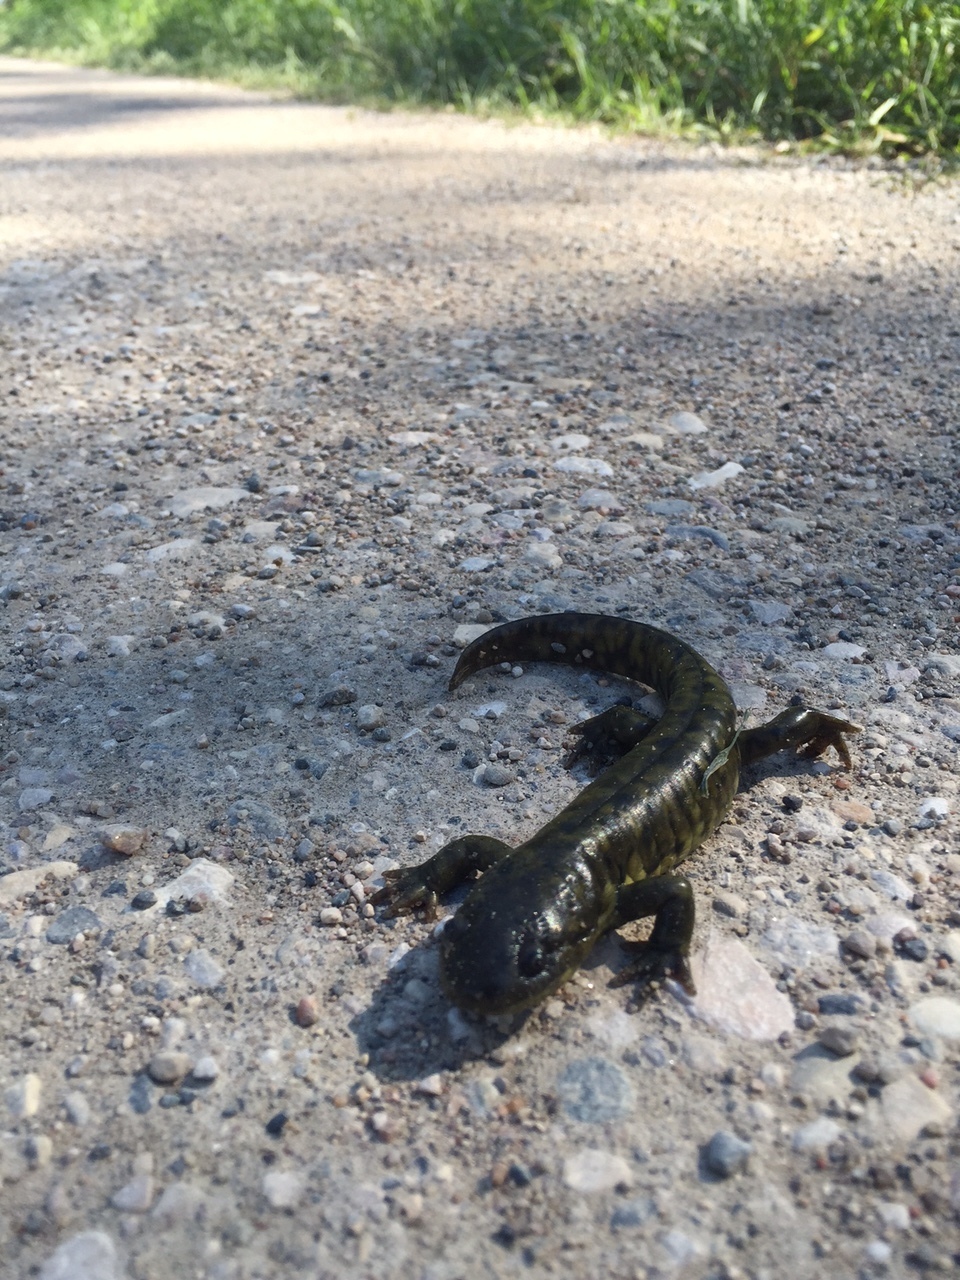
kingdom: Animalia
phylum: Chordata
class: Amphibia
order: Caudata
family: Ambystomatidae
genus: Ambystoma
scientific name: Ambystoma mavortium
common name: Western tiger salamander
